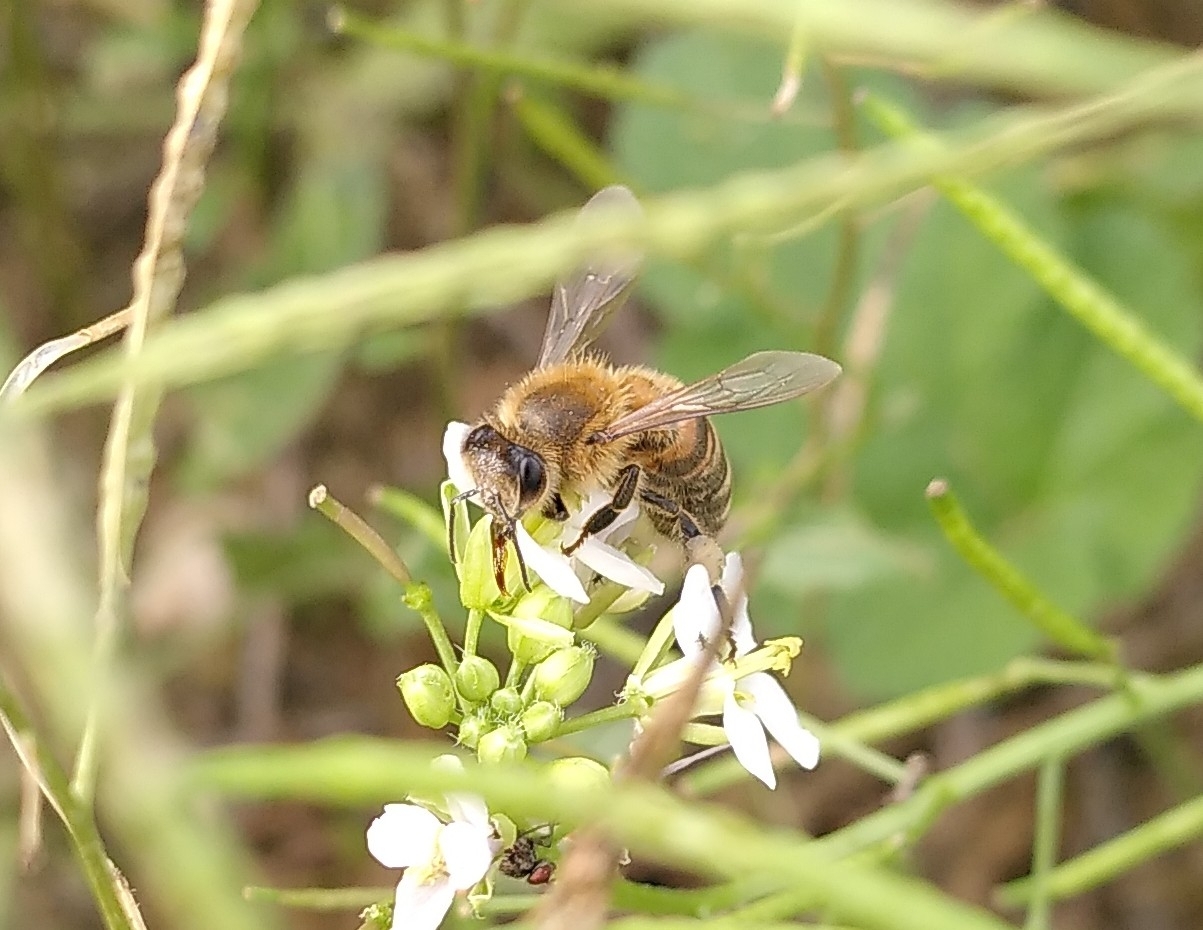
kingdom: Animalia
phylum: Arthropoda
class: Insecta
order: Hymenoptera
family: Apidae
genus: Apis
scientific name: Apis mellifera
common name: Honey bee
